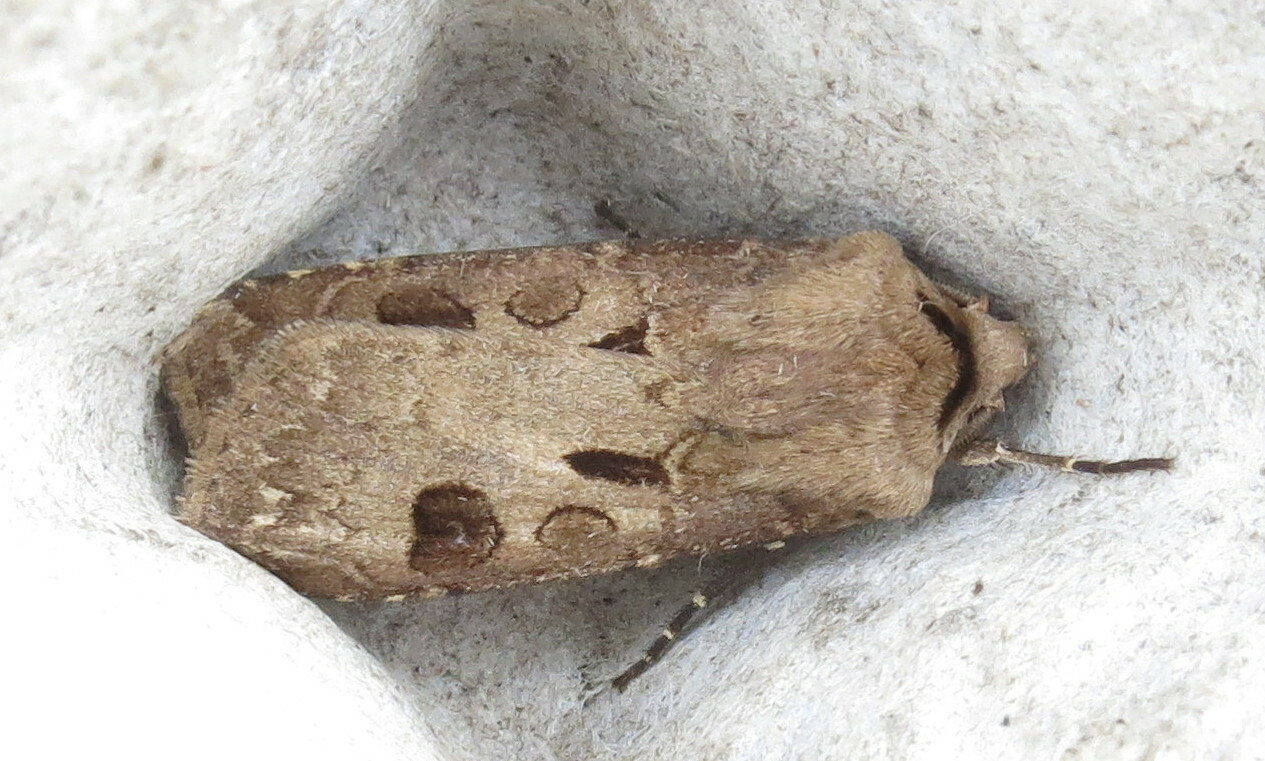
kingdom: Animalia
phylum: Arthropoda
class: Insecta
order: Lepidoptera
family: Noctuidae
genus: Agrotis
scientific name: Agrotis exclamationis
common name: Heart and dart
